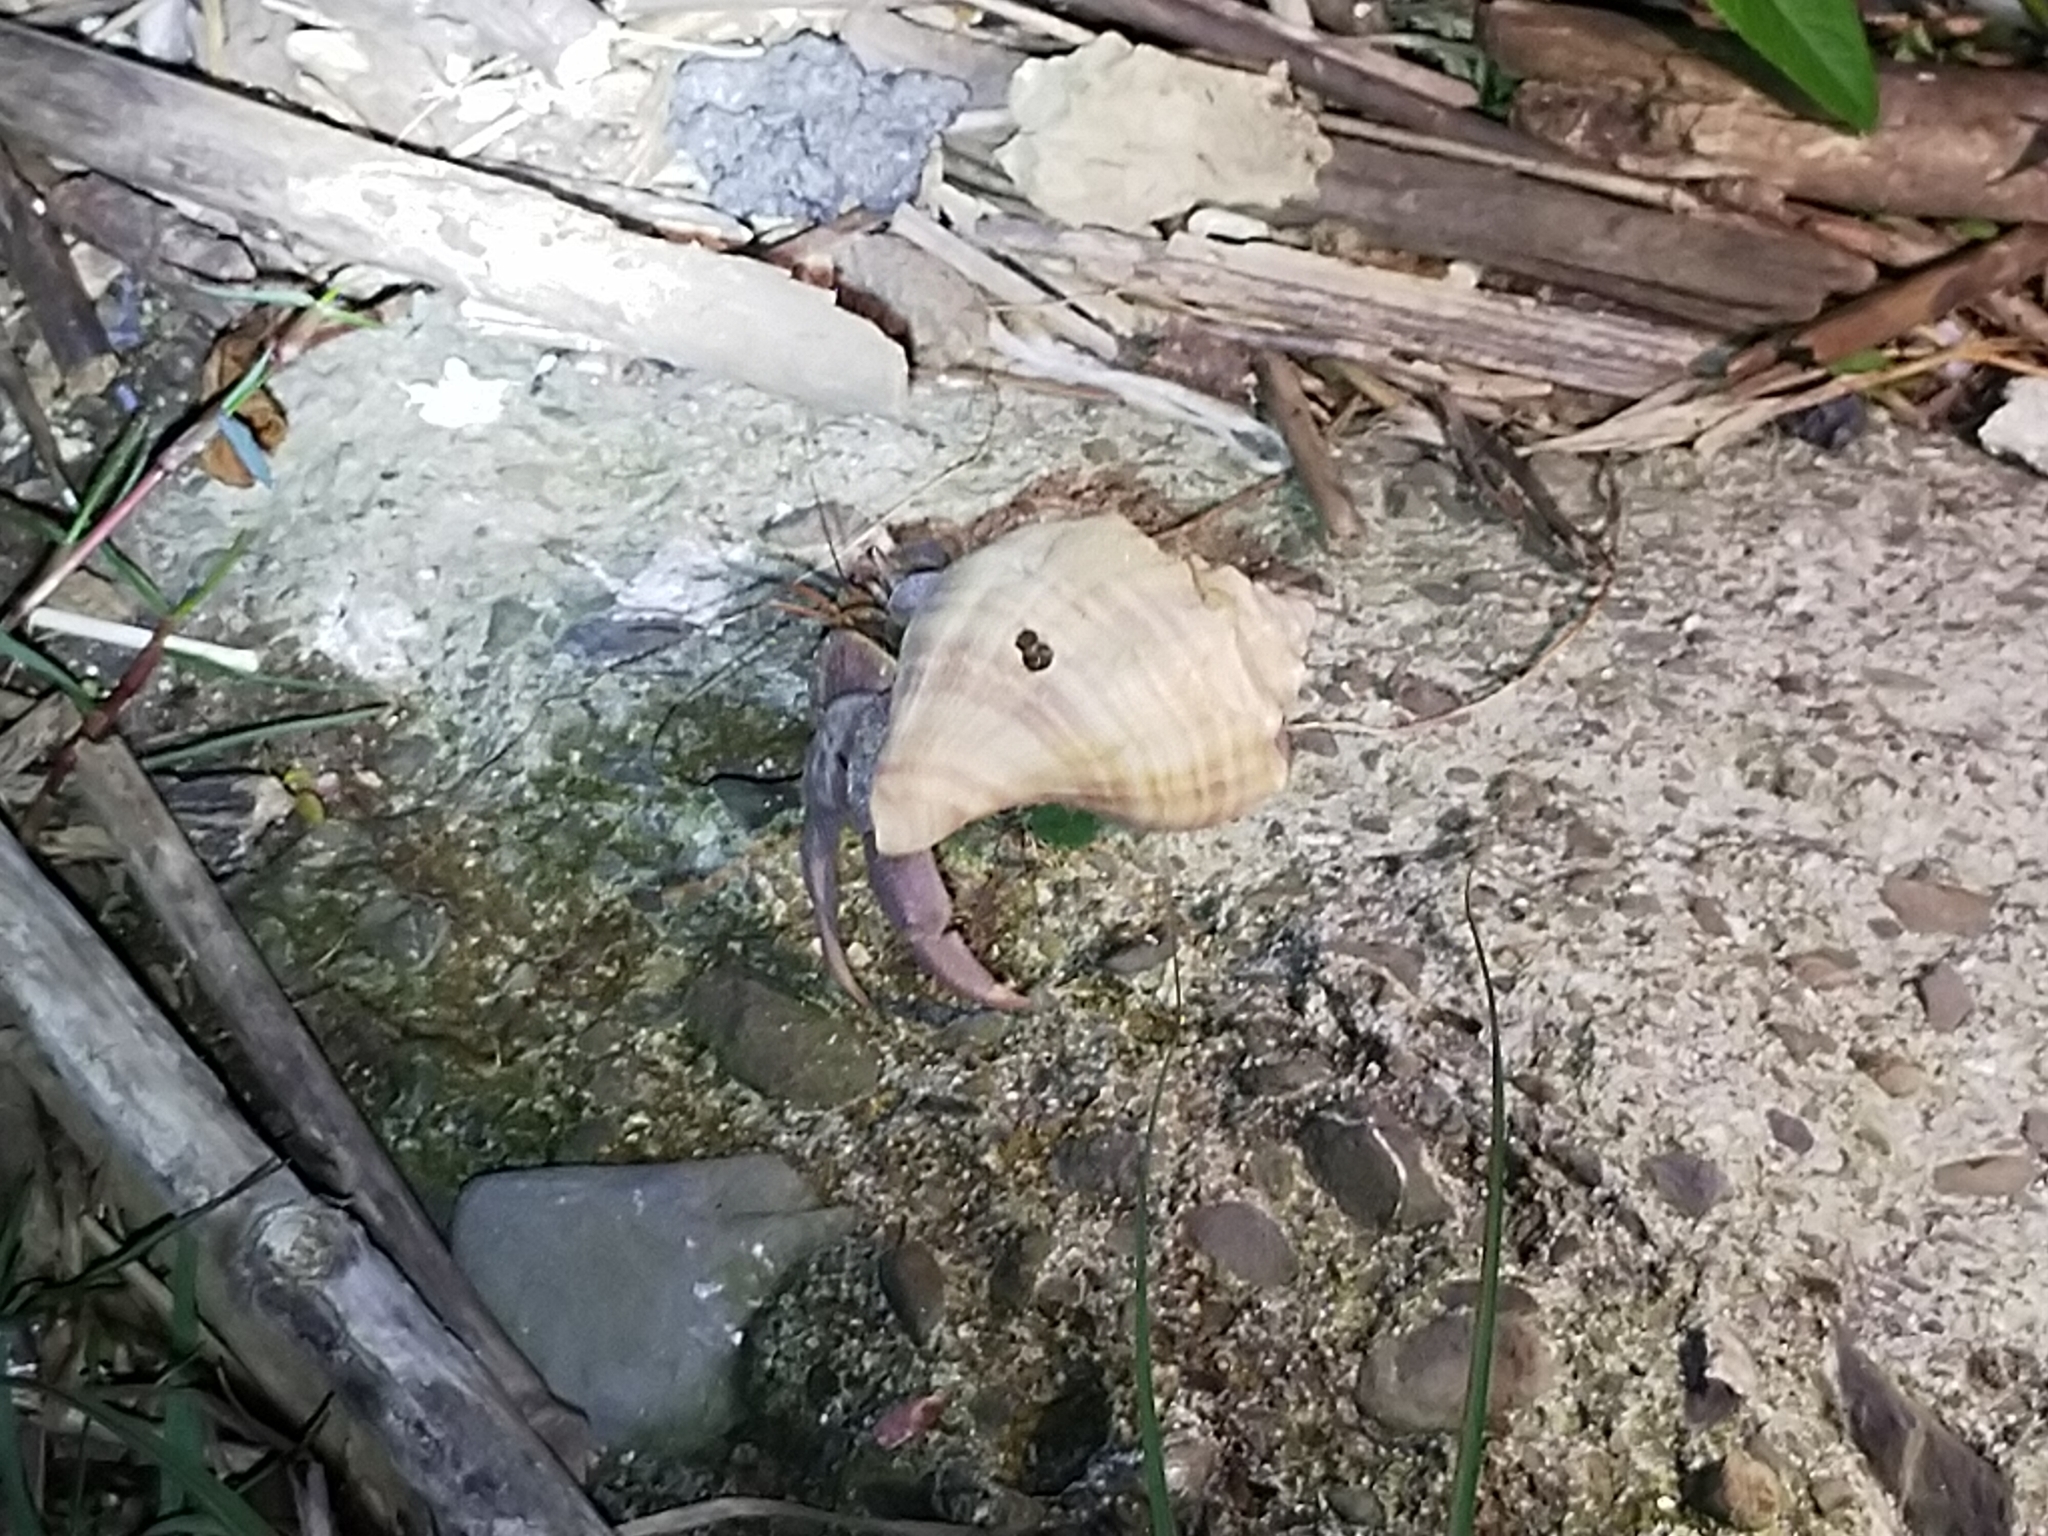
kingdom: Animalia
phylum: Arthropoda
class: Malacostraca
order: Decapoda
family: Coenobitidae
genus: Coenobita
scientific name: Coenobita brevimanus
